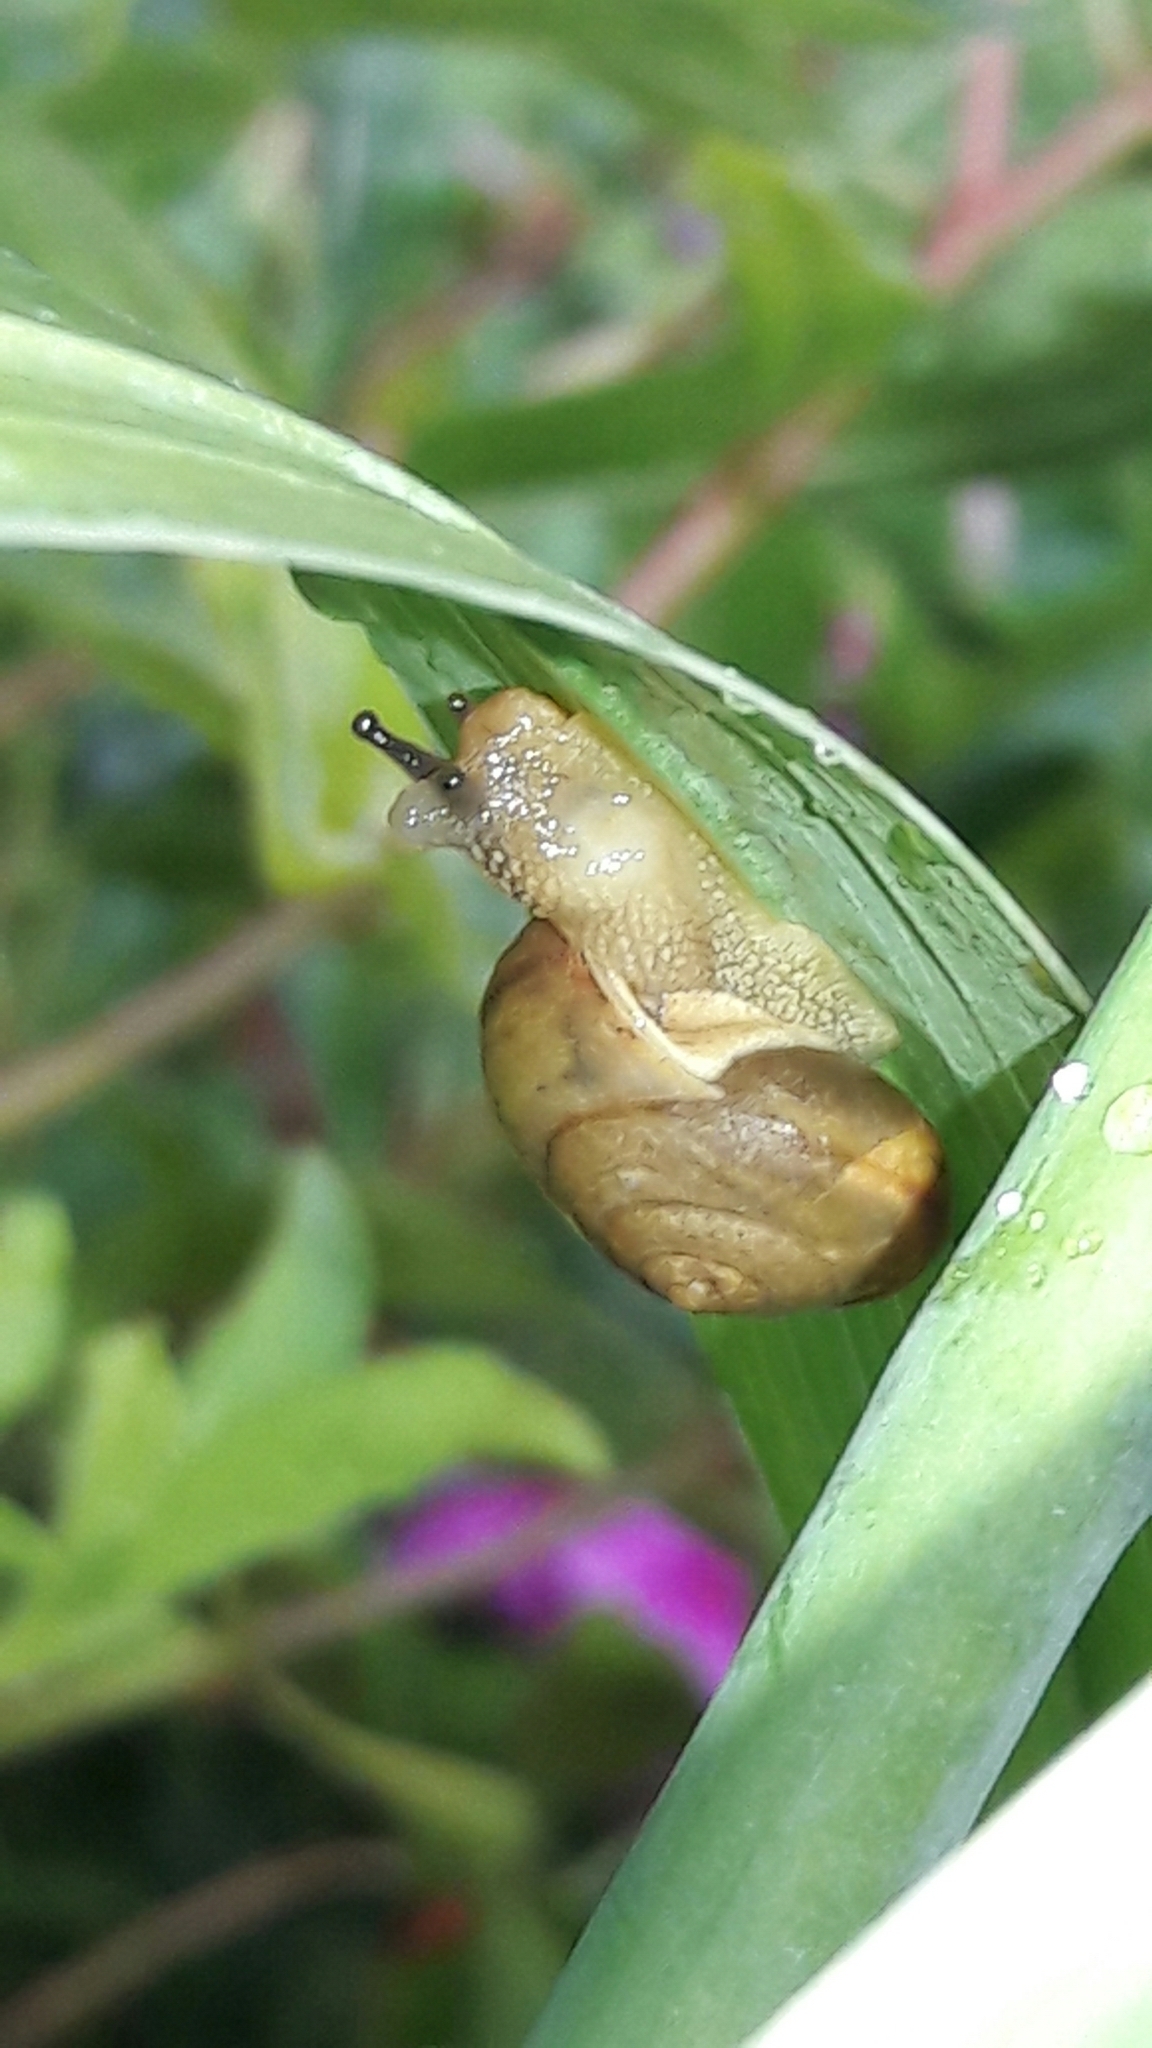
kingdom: Animalia
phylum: Mollusca
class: Gastropoda
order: Stylommatophora
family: Camaenidae
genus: Bradybaena
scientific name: Bradybaena similaris
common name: Asian trampsnail
